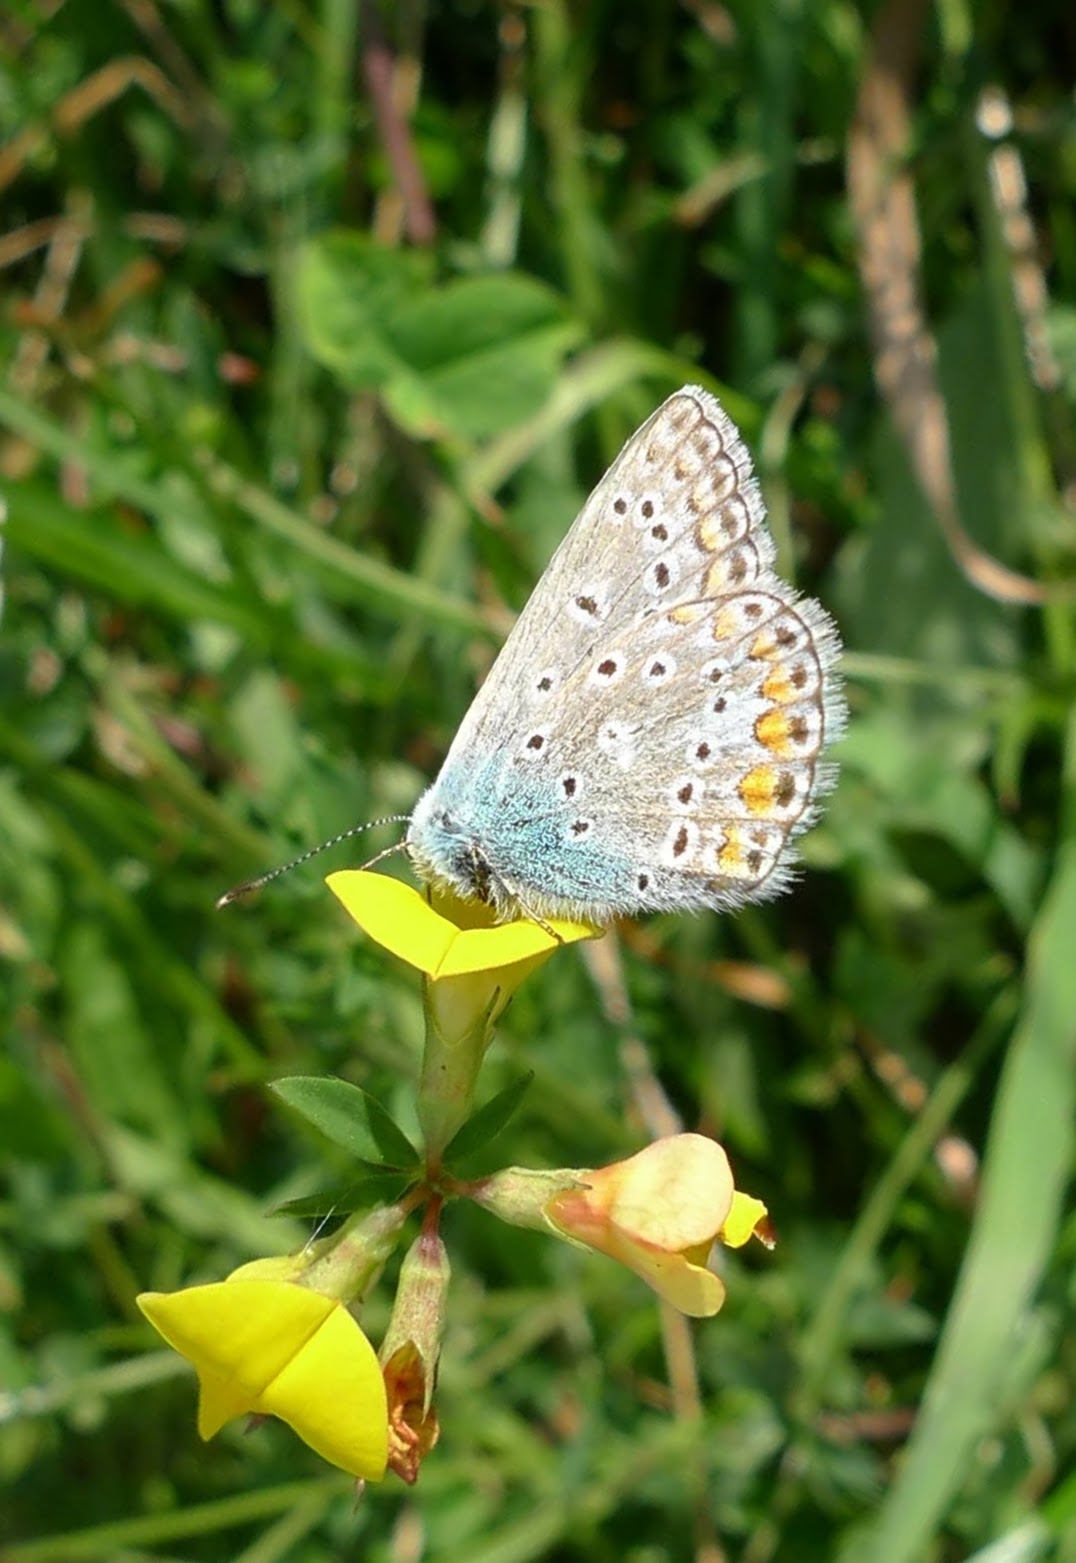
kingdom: Animalia
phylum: Arthropoda
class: Insecta
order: Lepidoptera
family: Lycaenidae
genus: Polyommatus
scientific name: Polyommatus icarus
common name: Common blue
